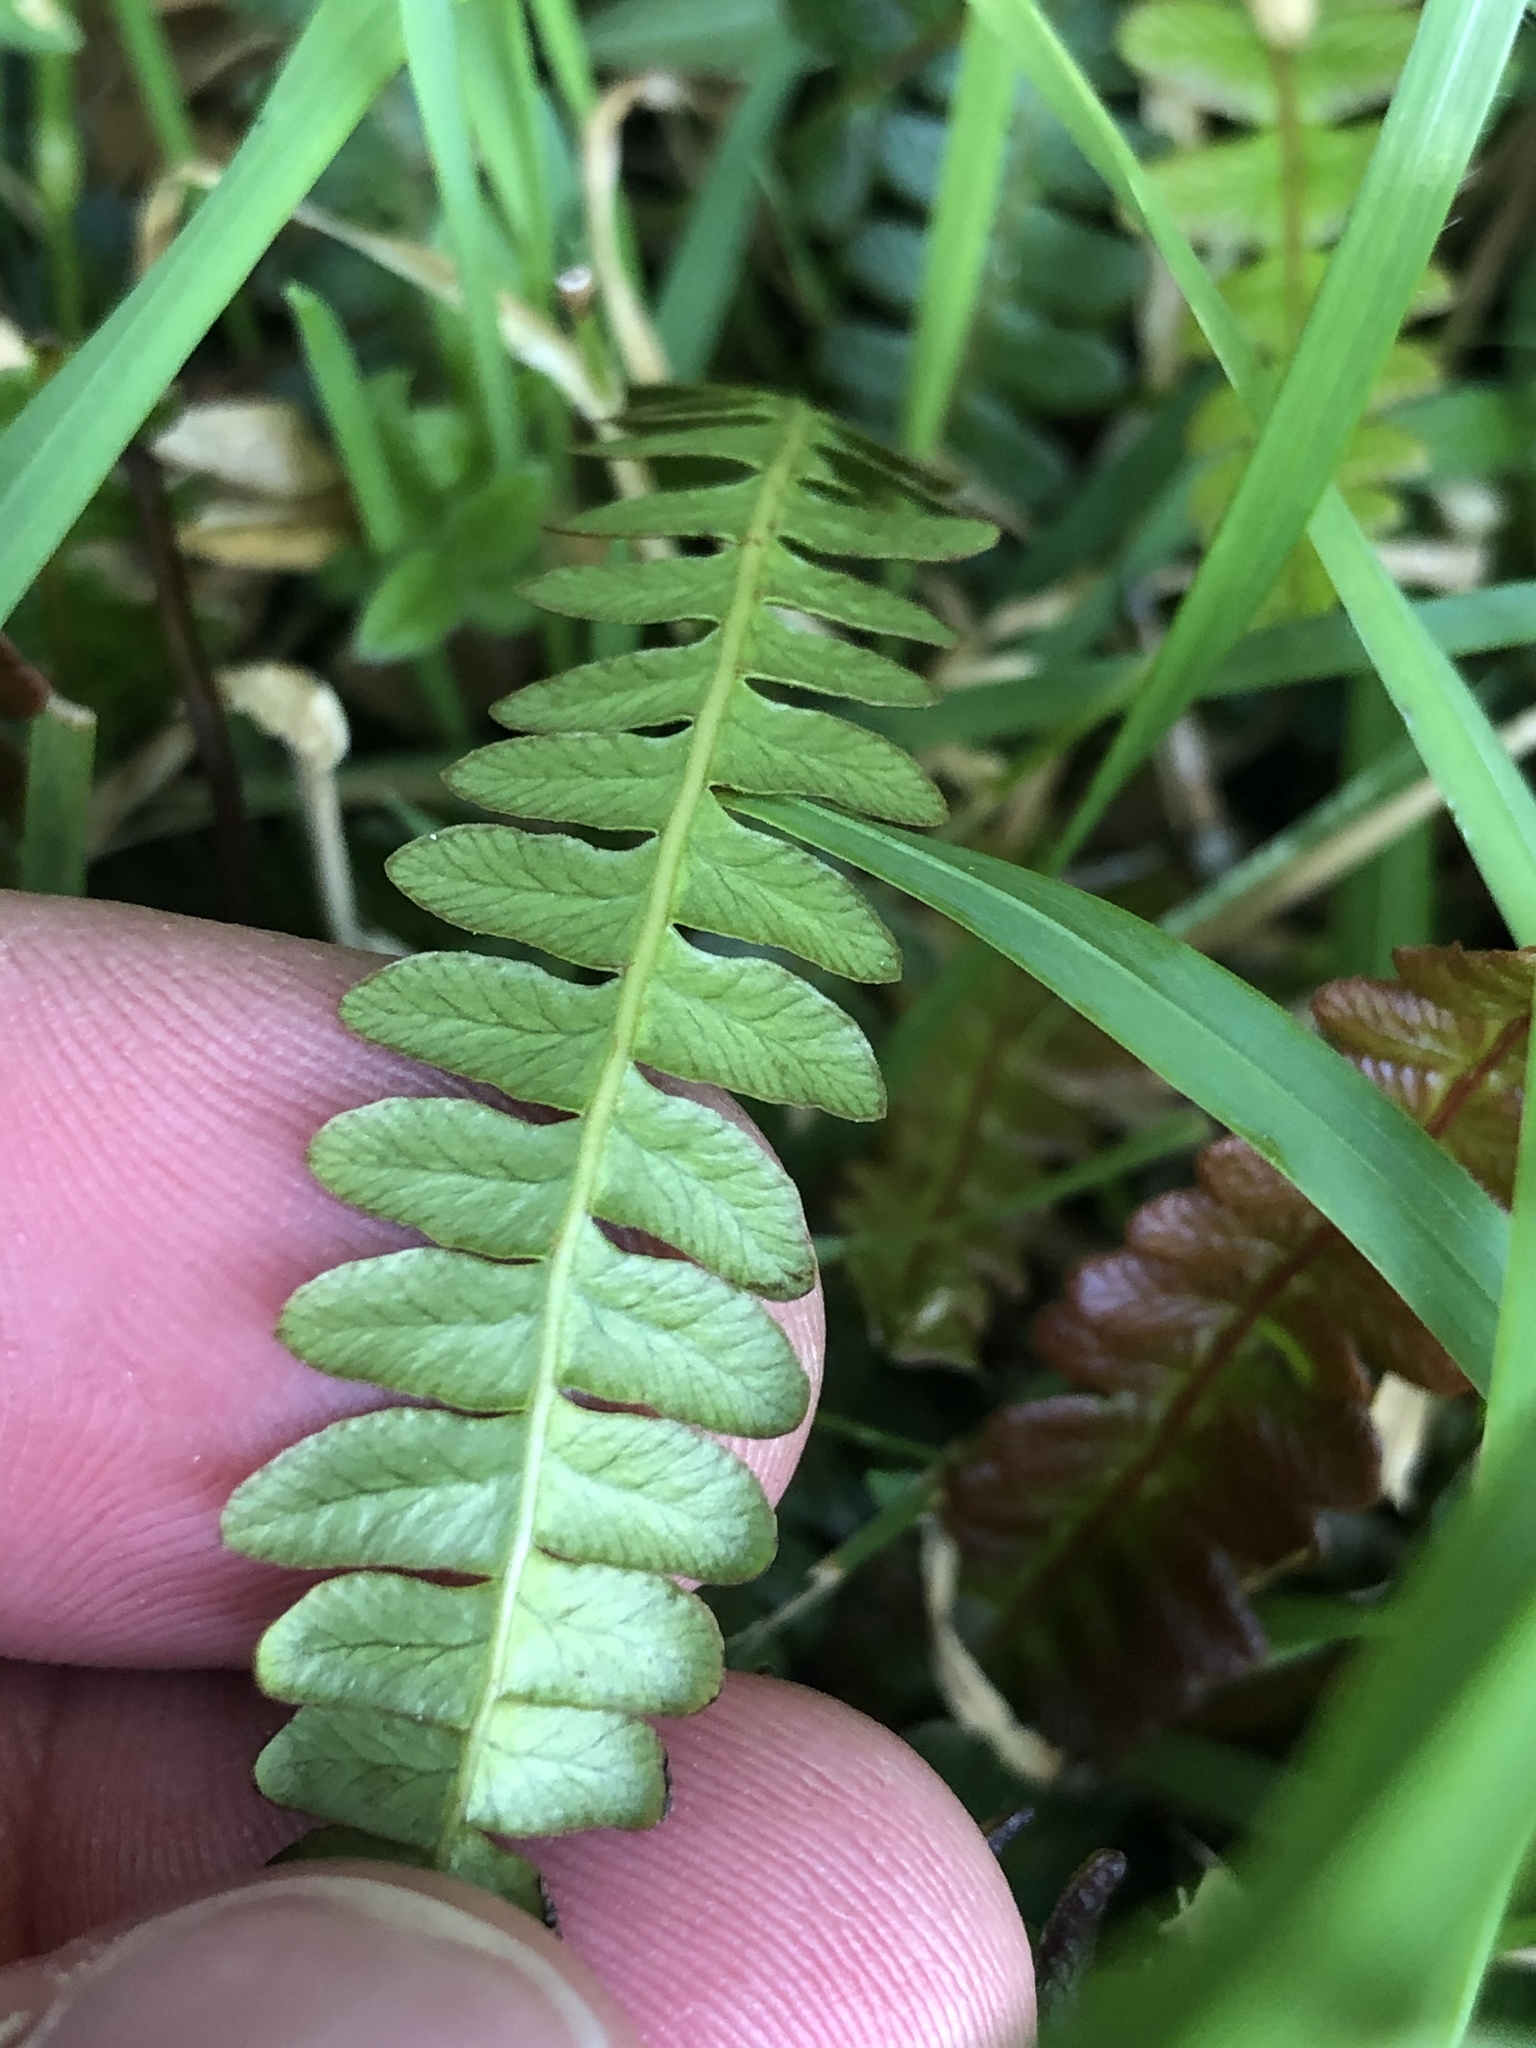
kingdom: Plantae
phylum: Tracheophyta
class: Polypodiopsida
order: Polypodiales
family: Blechnaceae
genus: Austroblechnum
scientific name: Austroblechnum penna-marina
